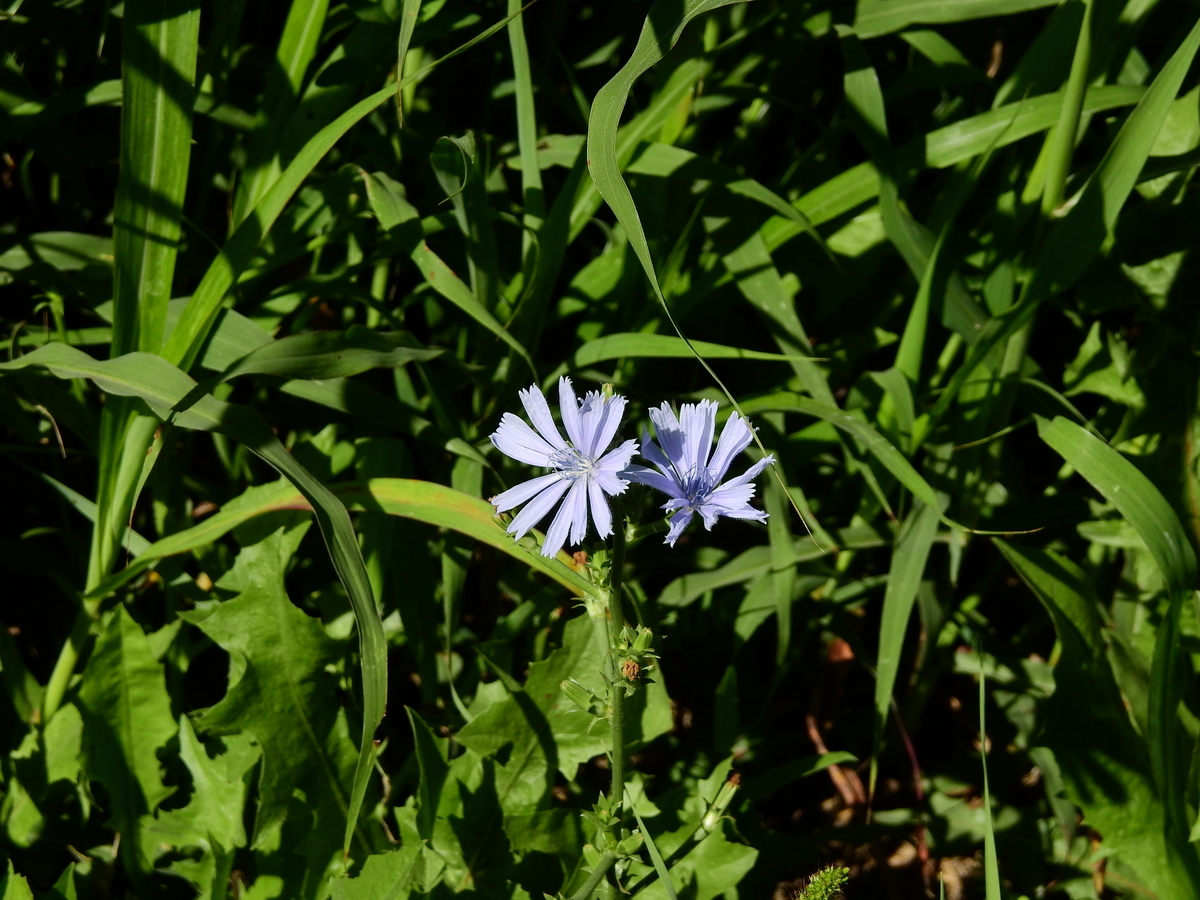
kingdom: Plantae
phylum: Tracheophyta
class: Magnoliopsida
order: Asterales
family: Asteraceae
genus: Cichorium
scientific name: Cichorium intybus
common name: Chicory
